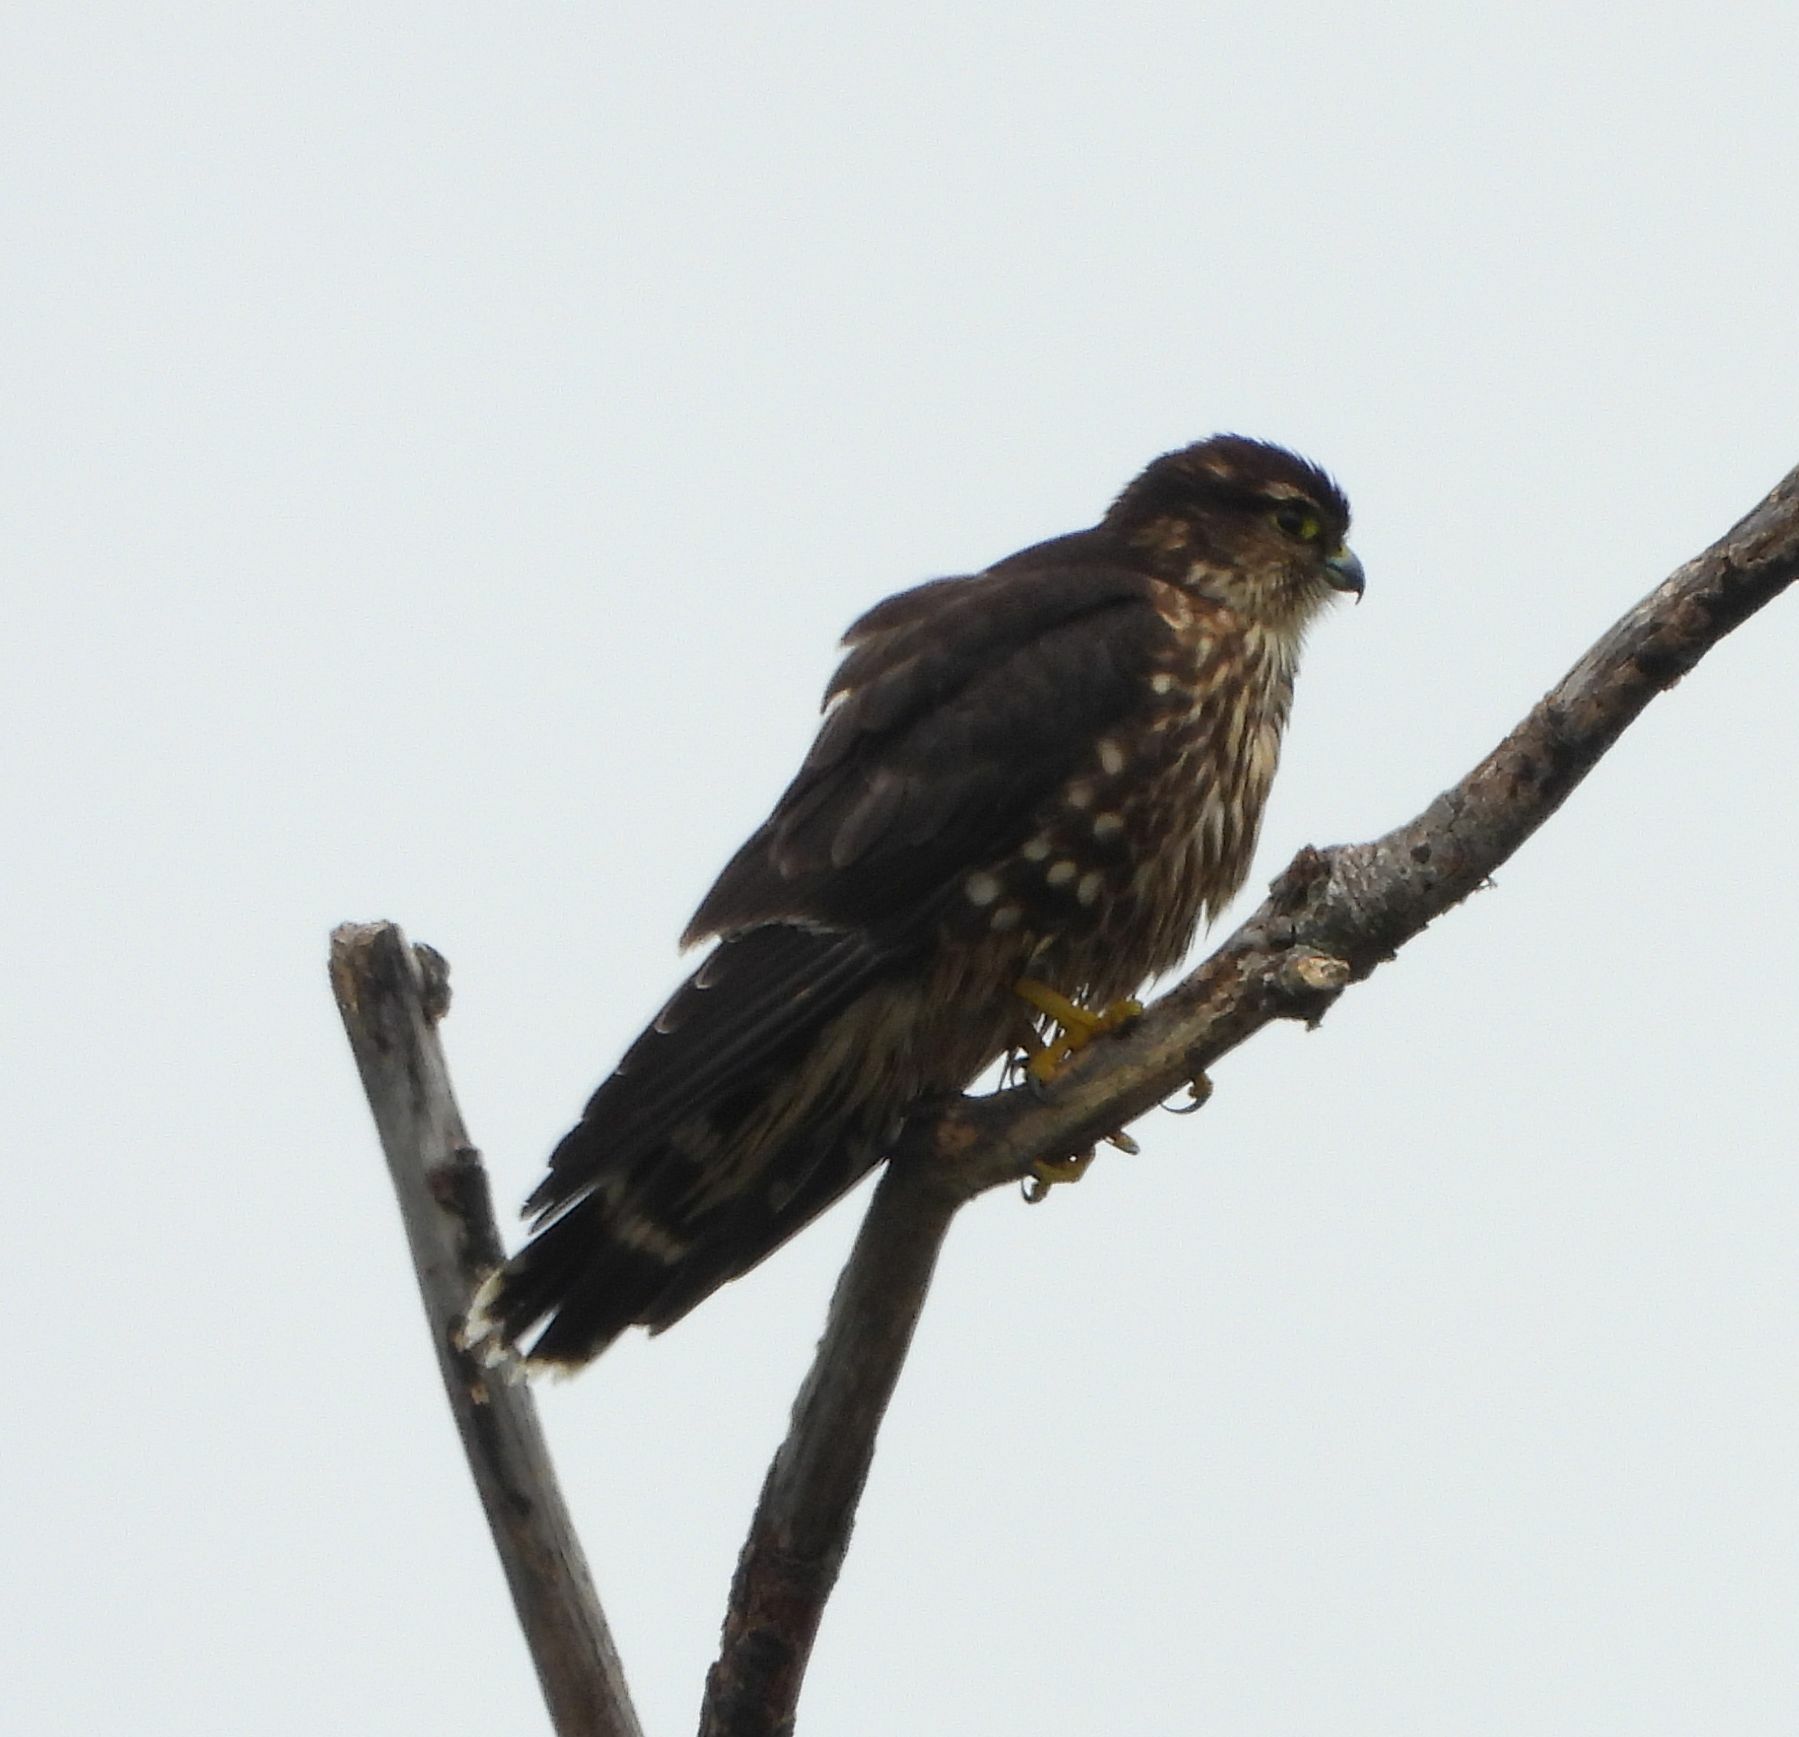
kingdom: Animalia
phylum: Chordata
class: Aves
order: Falconiformes
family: Falconidae
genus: Falco
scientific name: Falco columbarius
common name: Merlin
